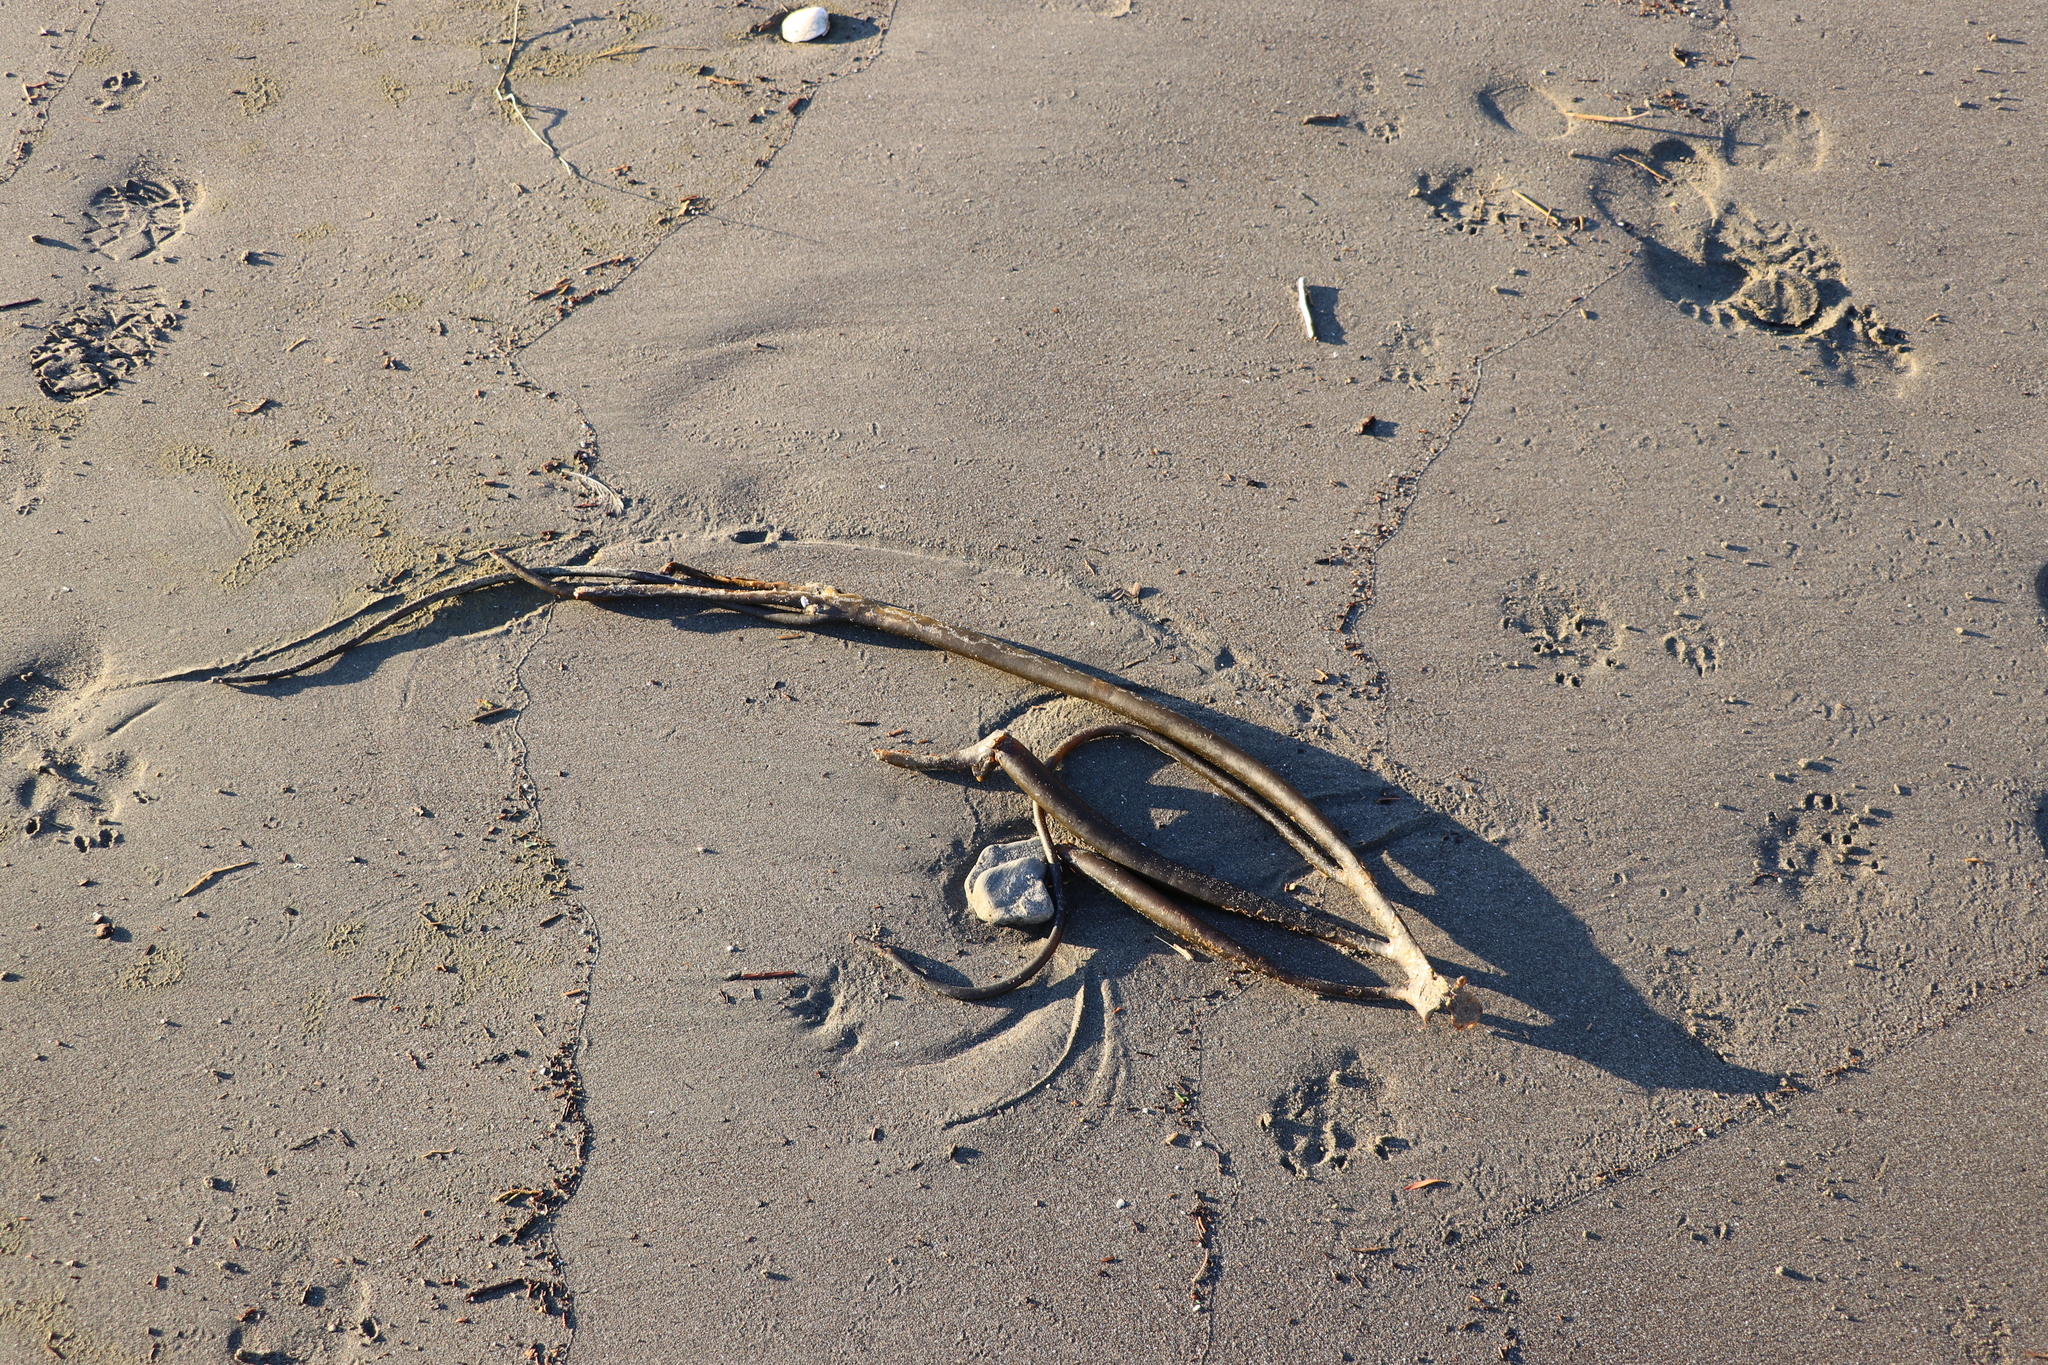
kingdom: Chromista
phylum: Ochrophyta
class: Phaeophyceae
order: Fucales
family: Durvillaeaceae
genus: Durvillaea
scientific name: Durvillaea antarctica
